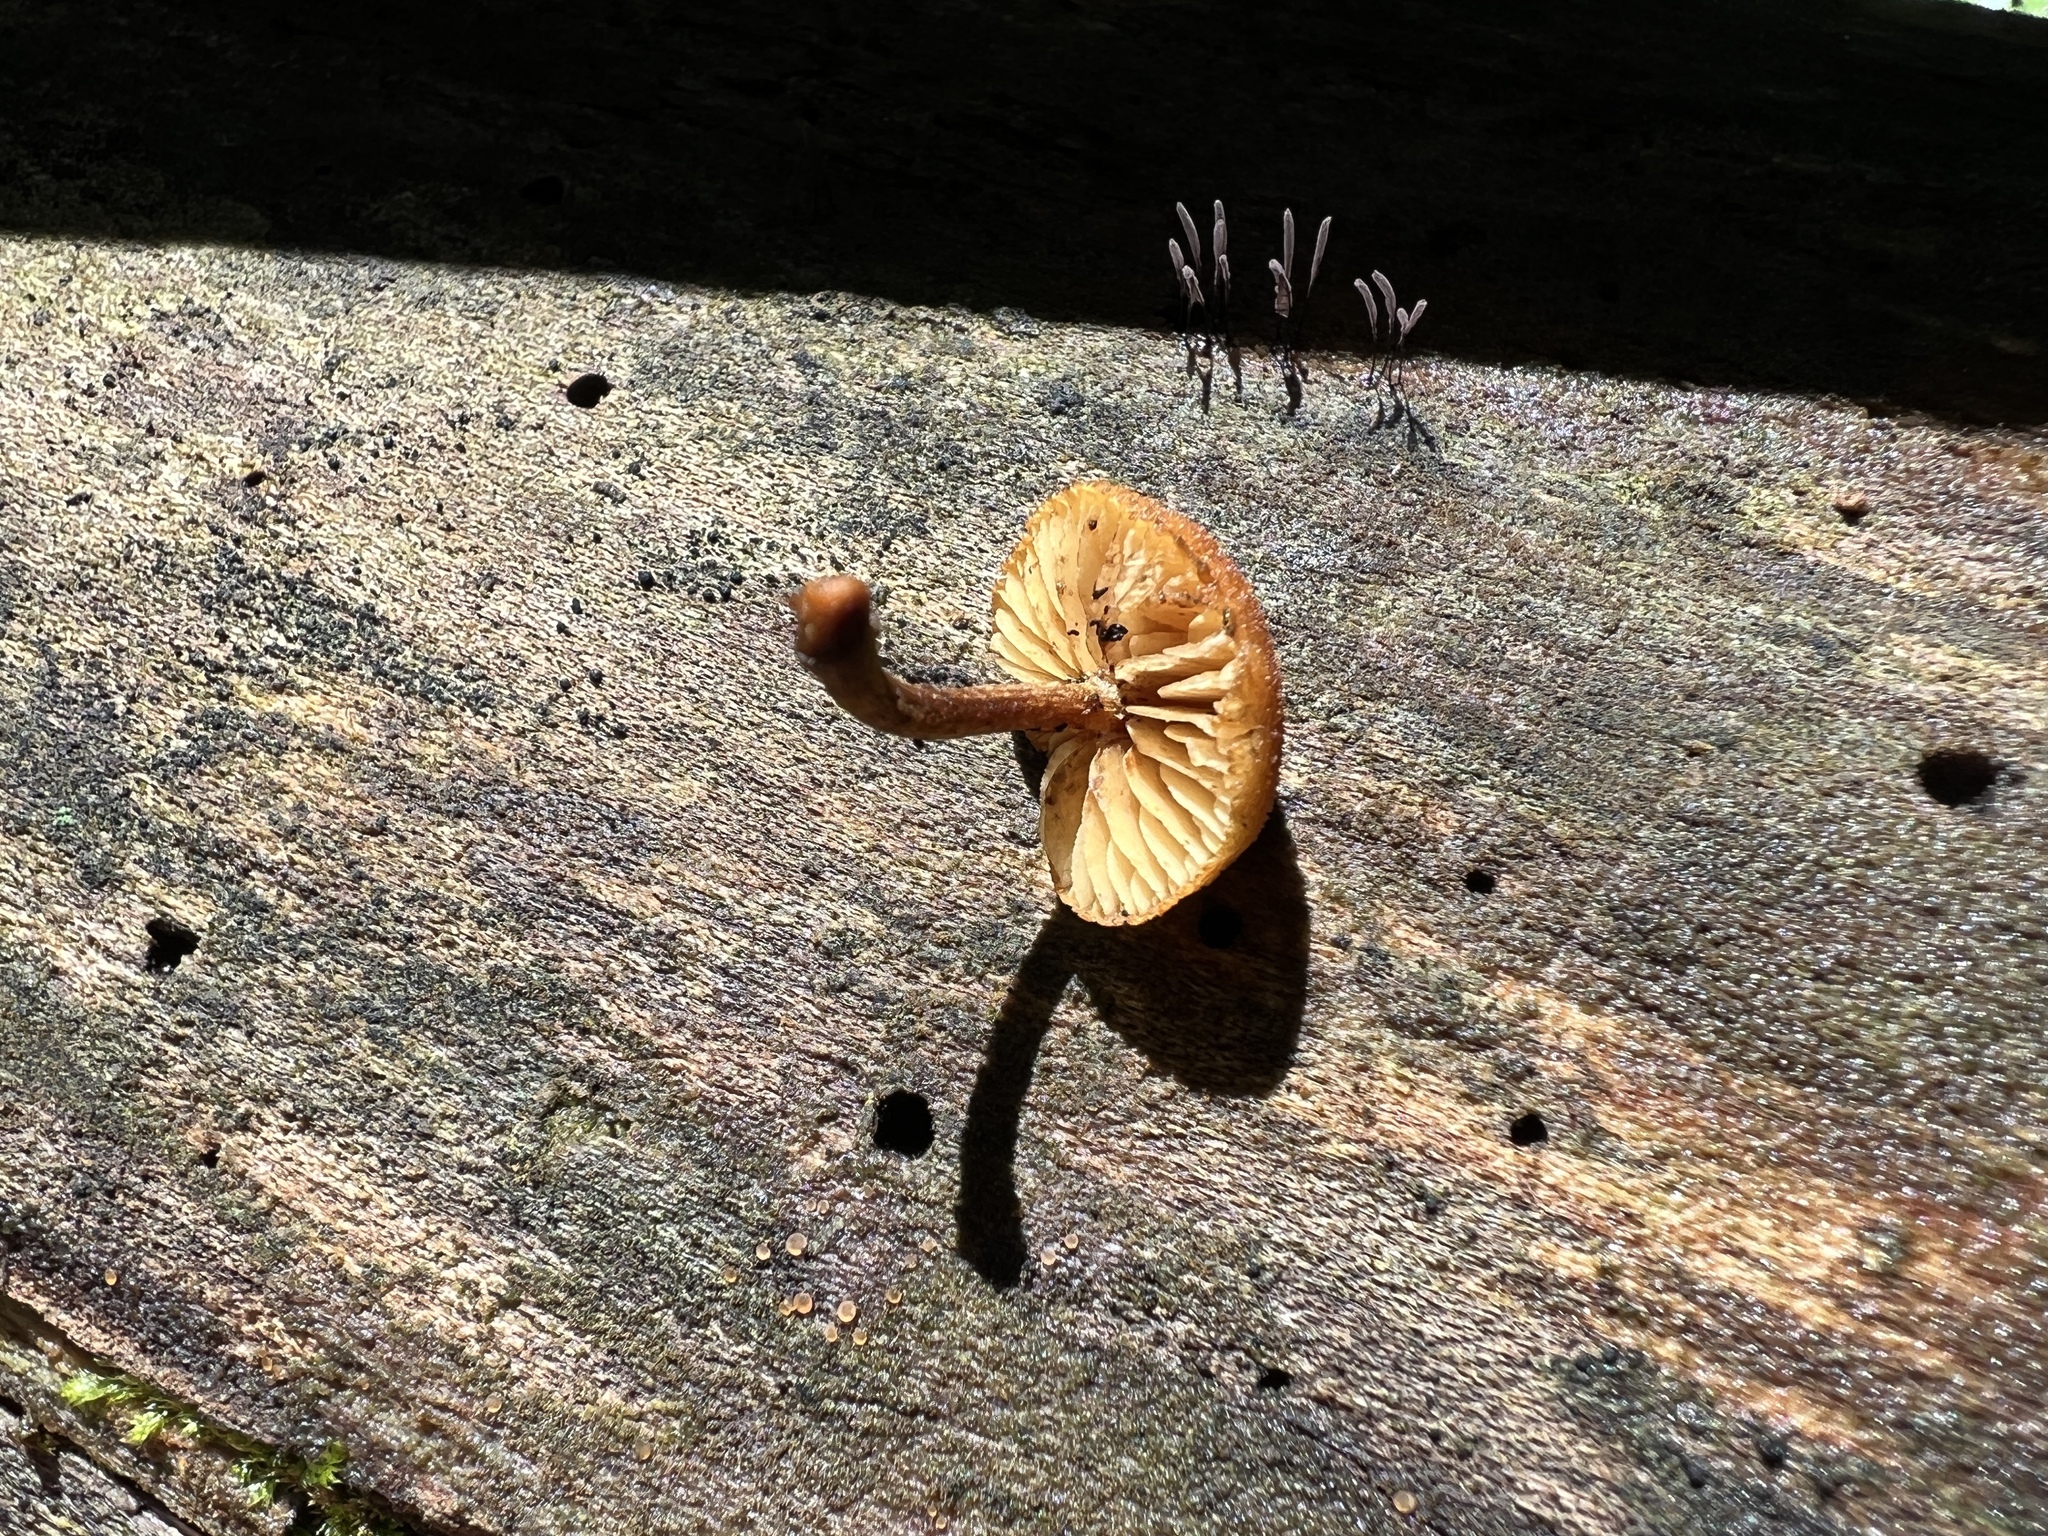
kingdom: Fungi
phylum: Basidiomycota
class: Agaricomycetes
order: Agaricales
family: Tubariaceae
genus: Phaeomarasmius
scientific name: Phaeomarasmius proximans
